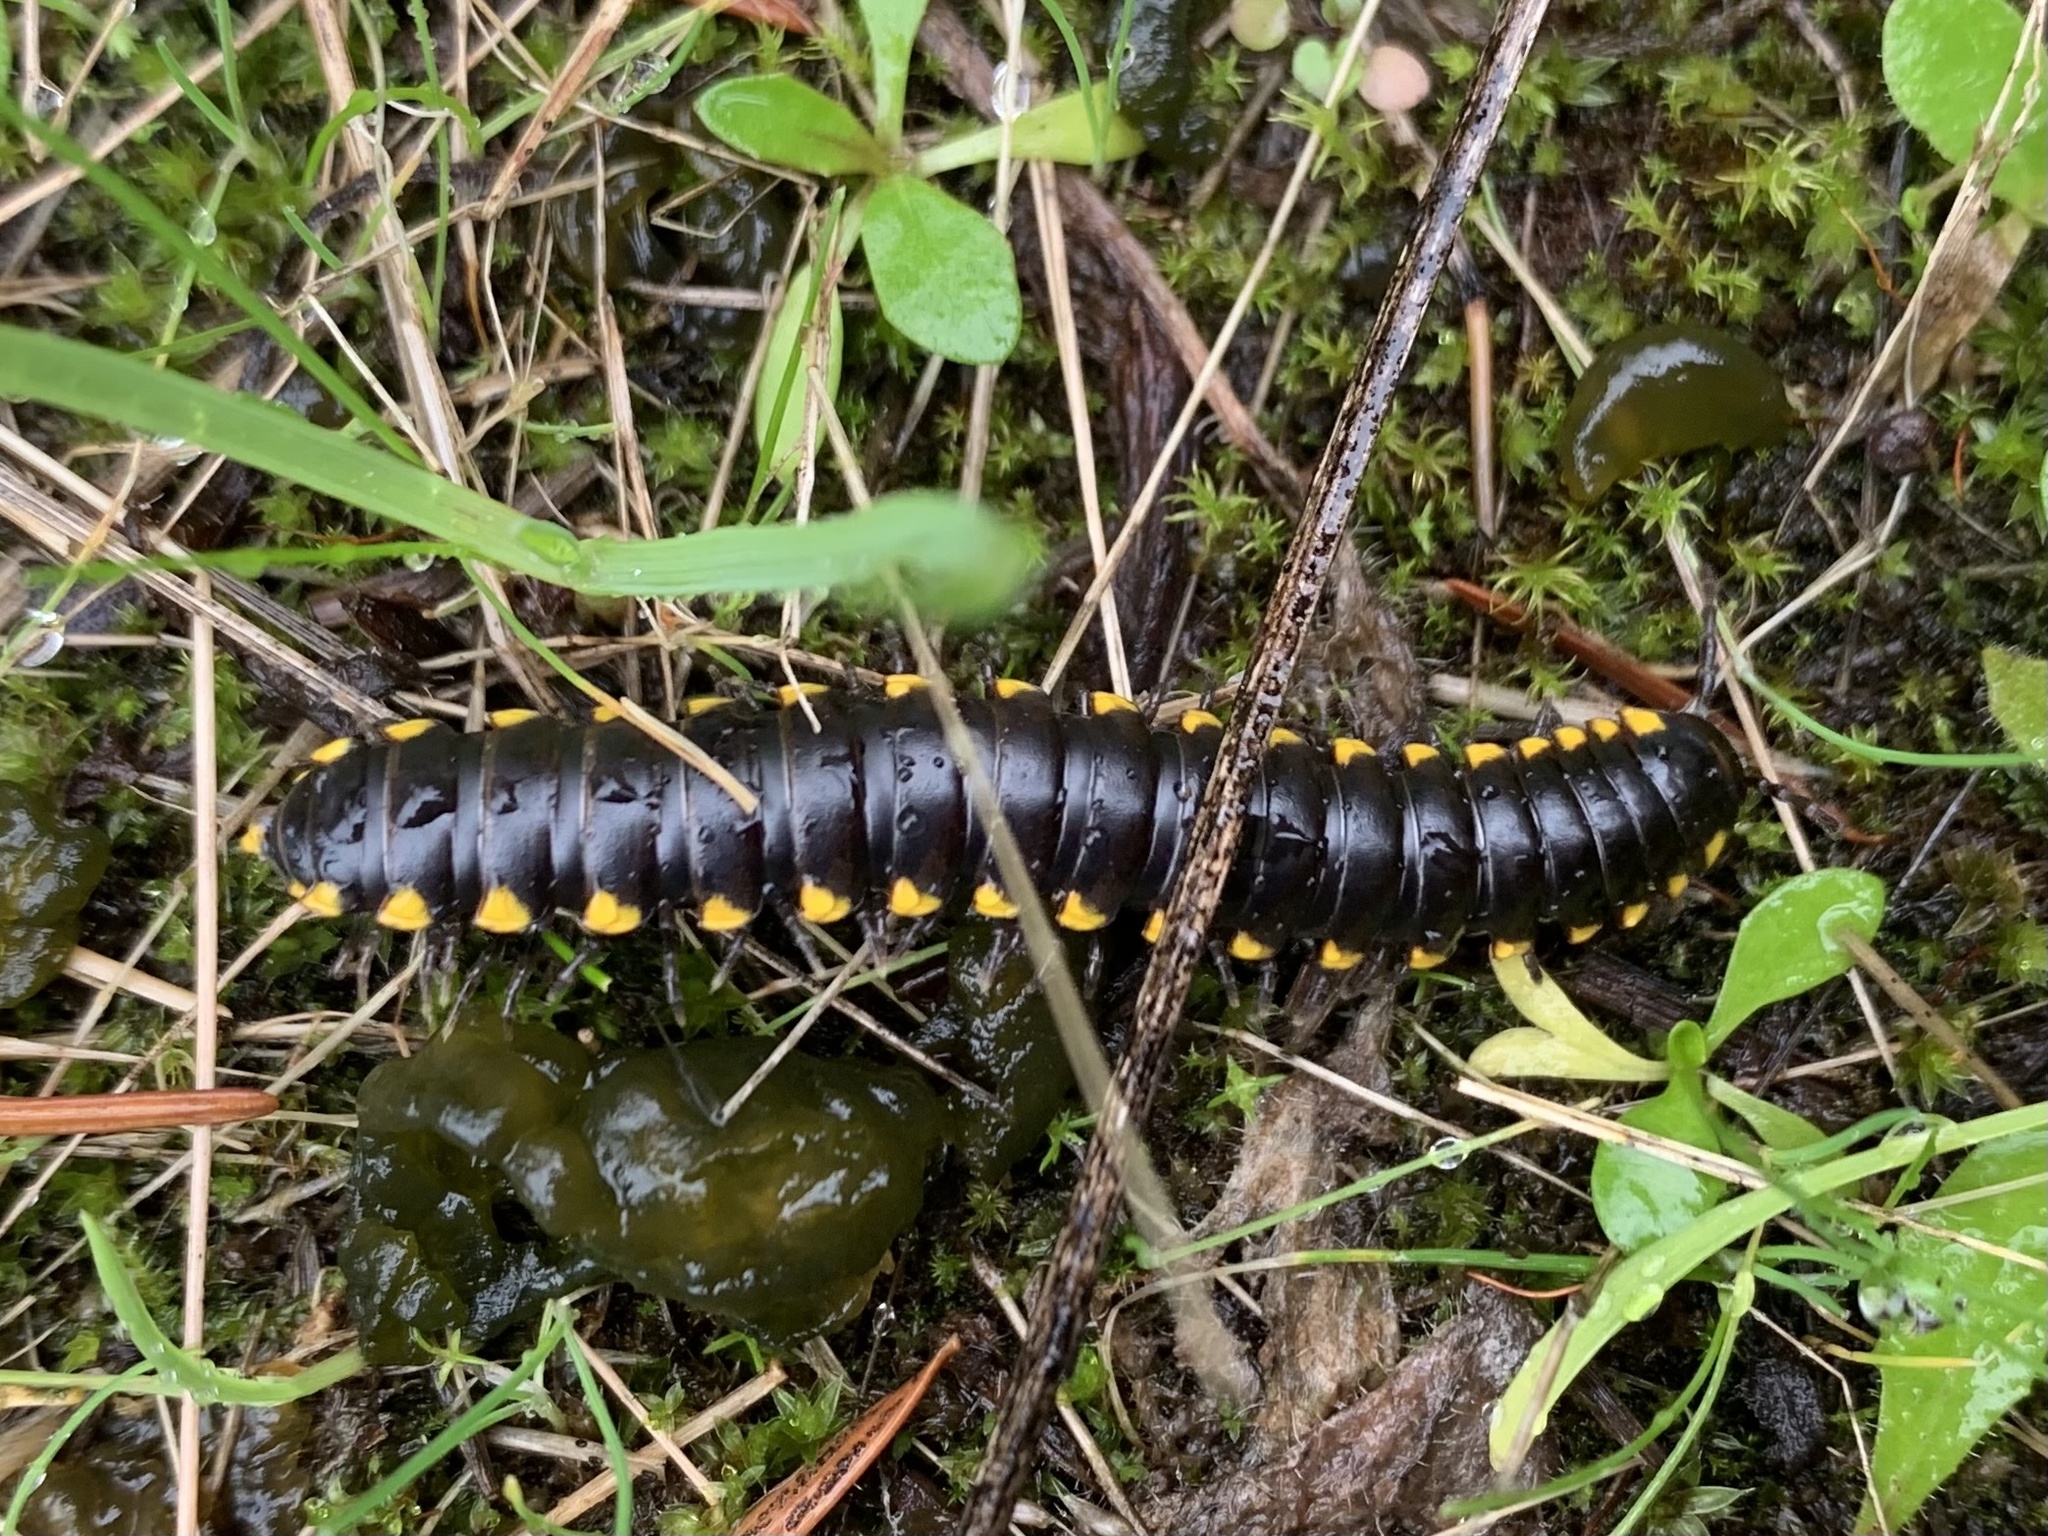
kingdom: Animalia
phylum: Arthropoda
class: Diplopoda
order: Polydesmida
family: Xystodesmidae
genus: Harpaphe
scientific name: Harpaphe haydeniana
